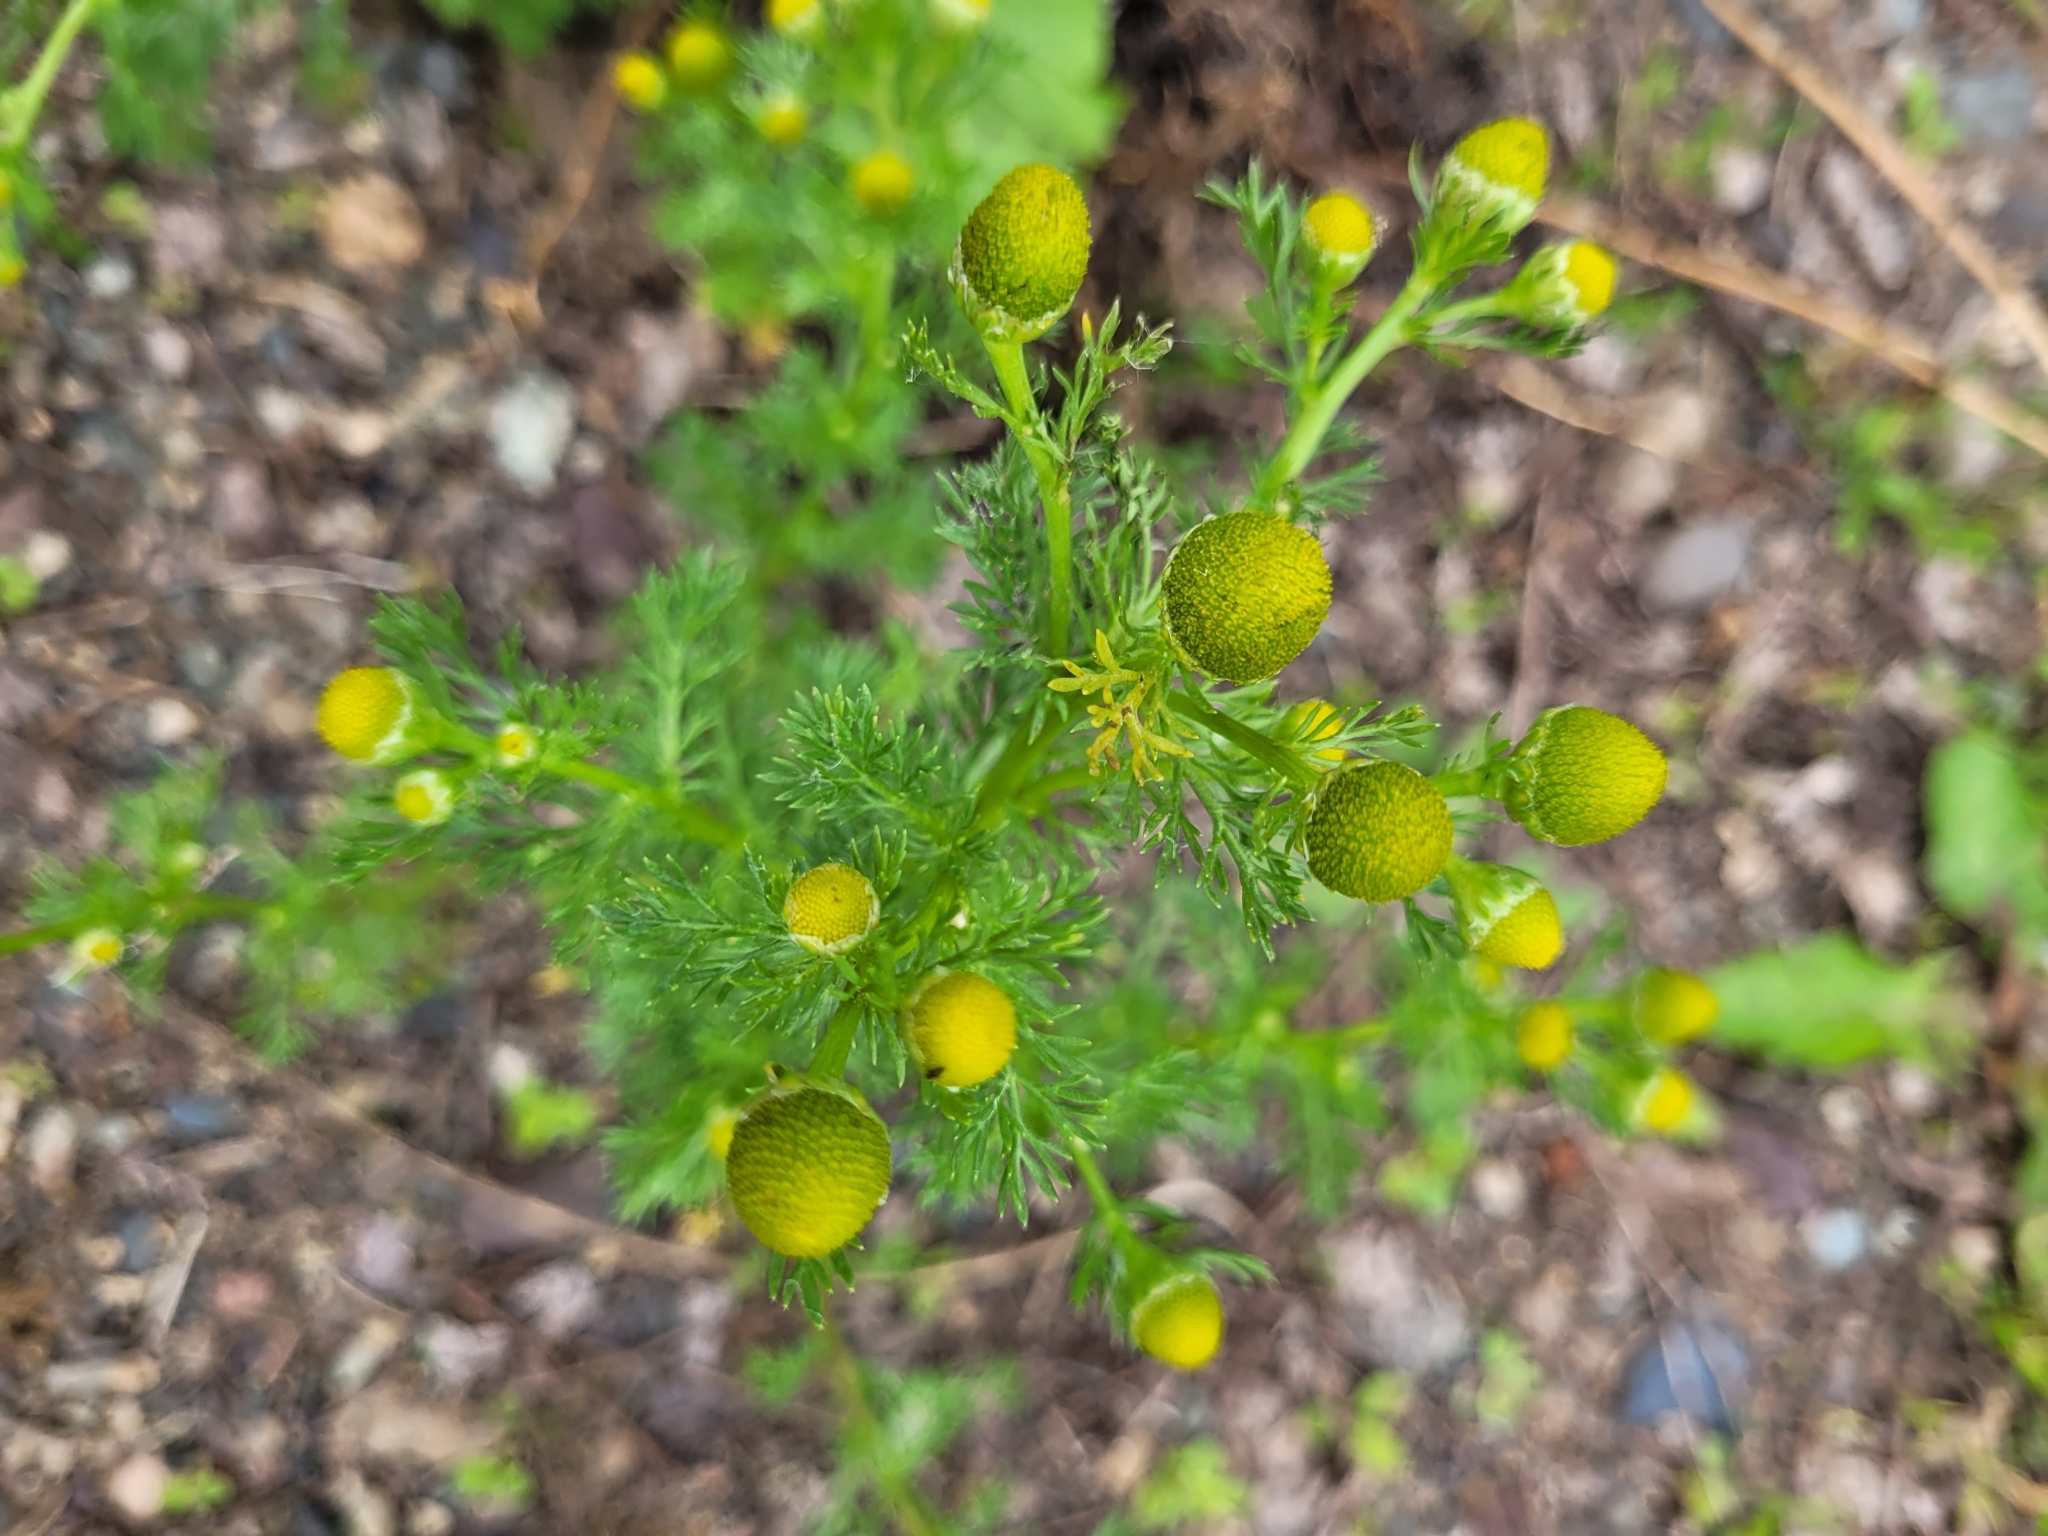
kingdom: Plantae
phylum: Tracheophyta
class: Magnoliopsida
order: Asterales
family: Asteraceae
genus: Matricaria
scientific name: Matricaria discoidea
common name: Disc mayweed
